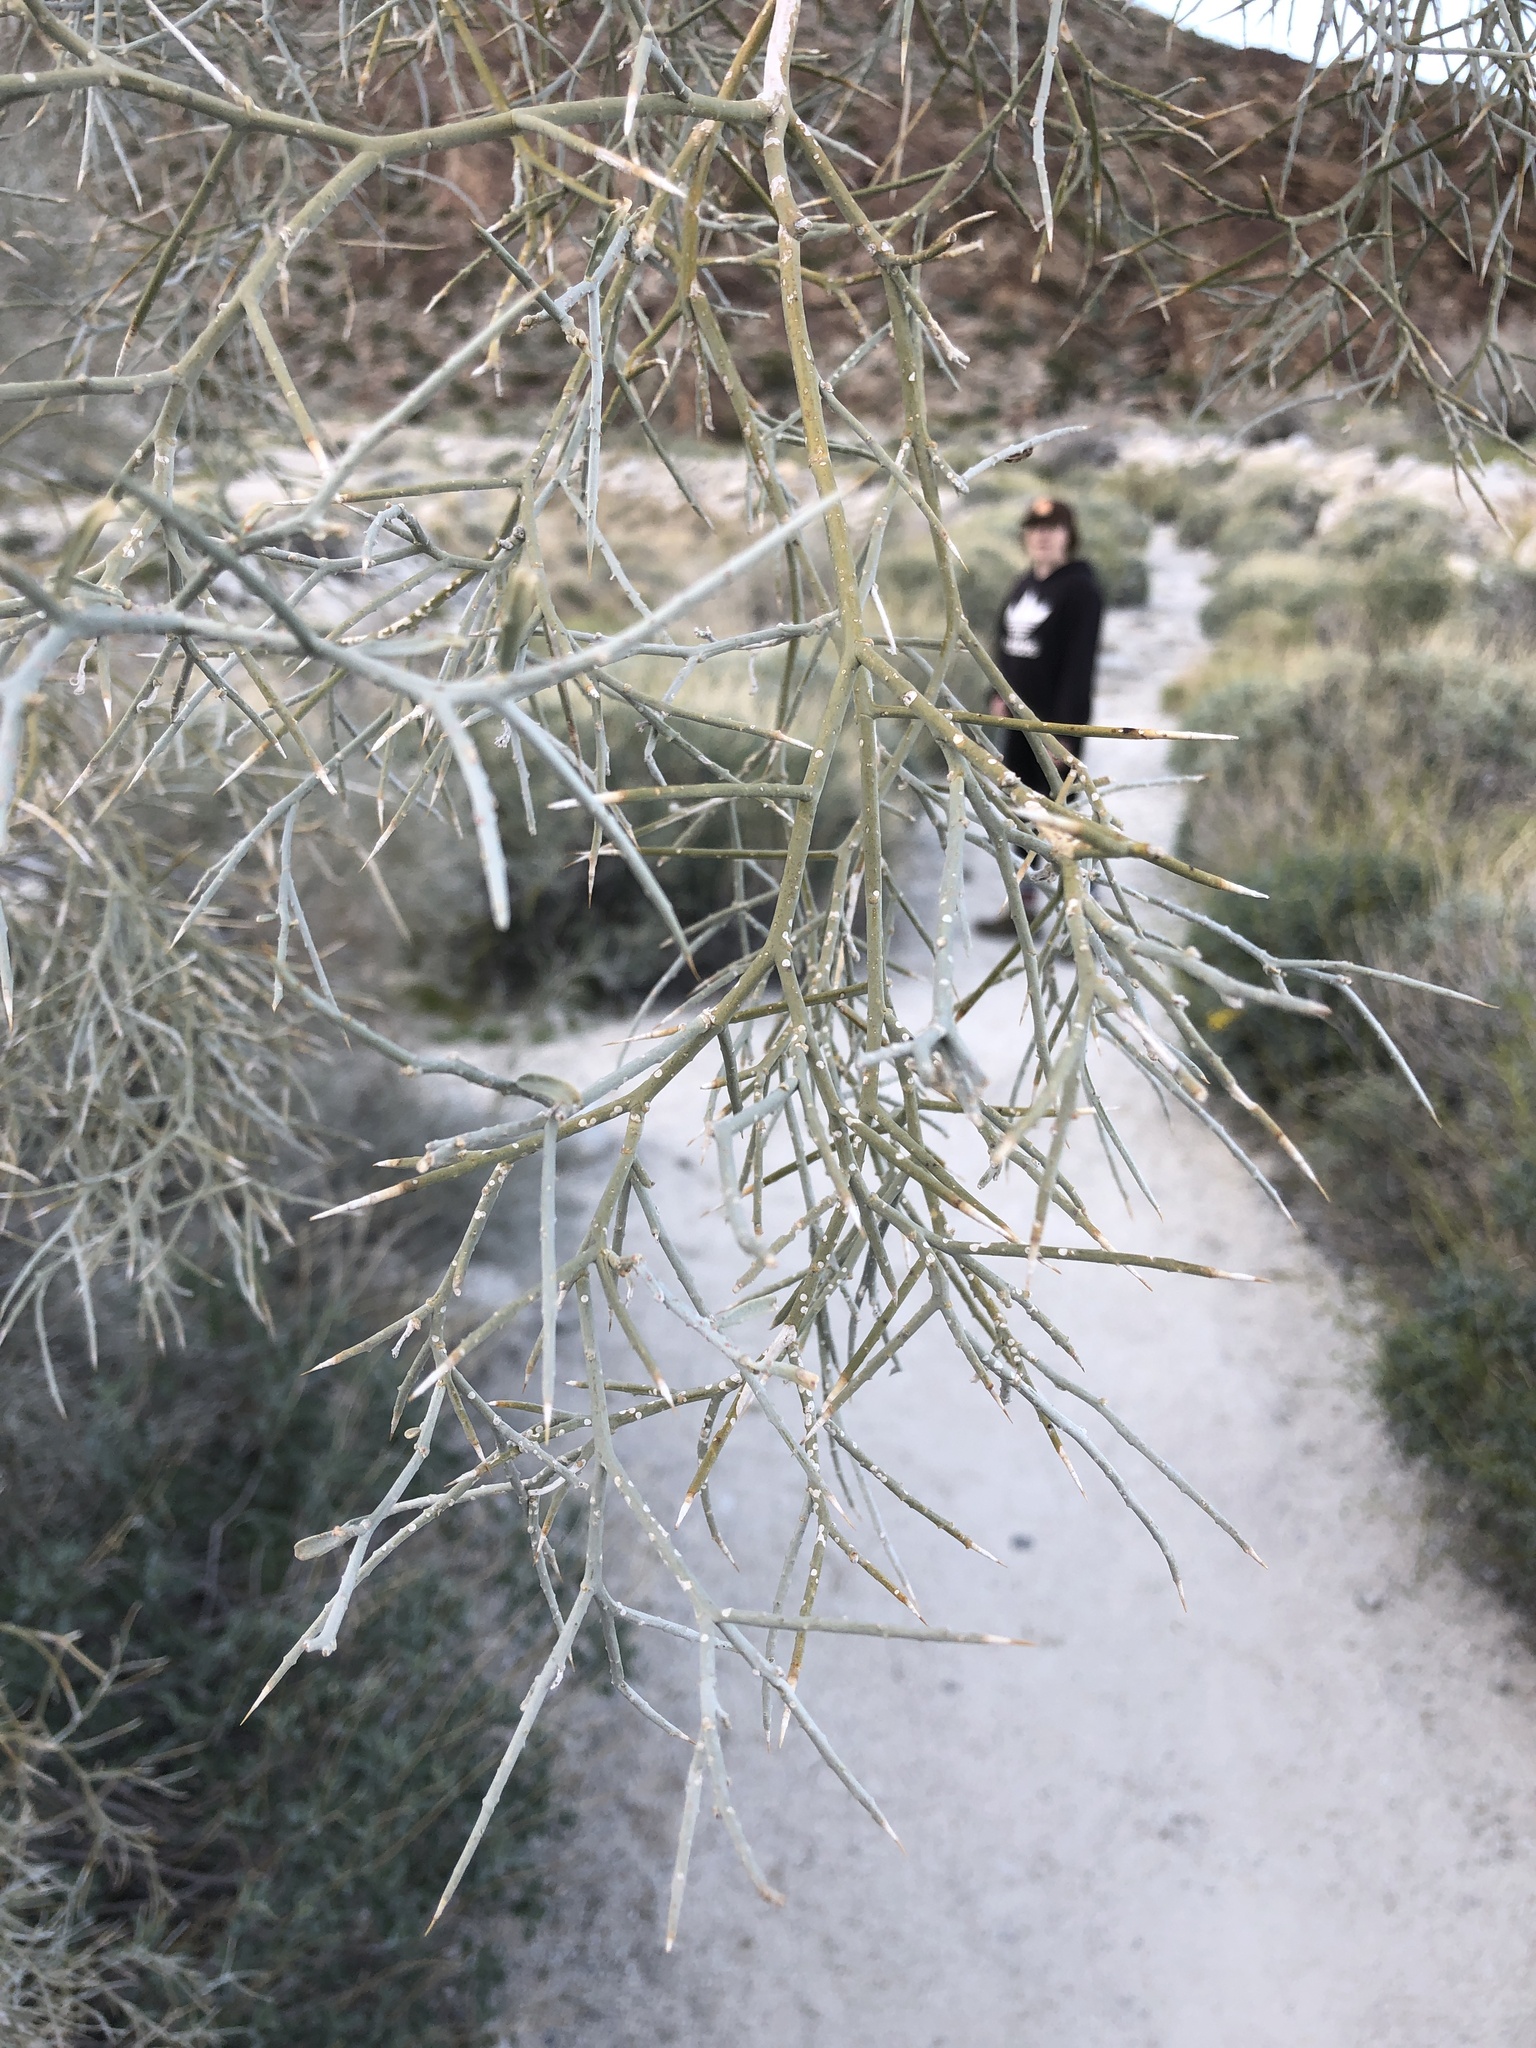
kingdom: Plantae
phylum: Tracheophyta
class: Magnoliopsida
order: Fabales
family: Fabaceae
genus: Psorothamnus
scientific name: Psorothamnus spinosus
